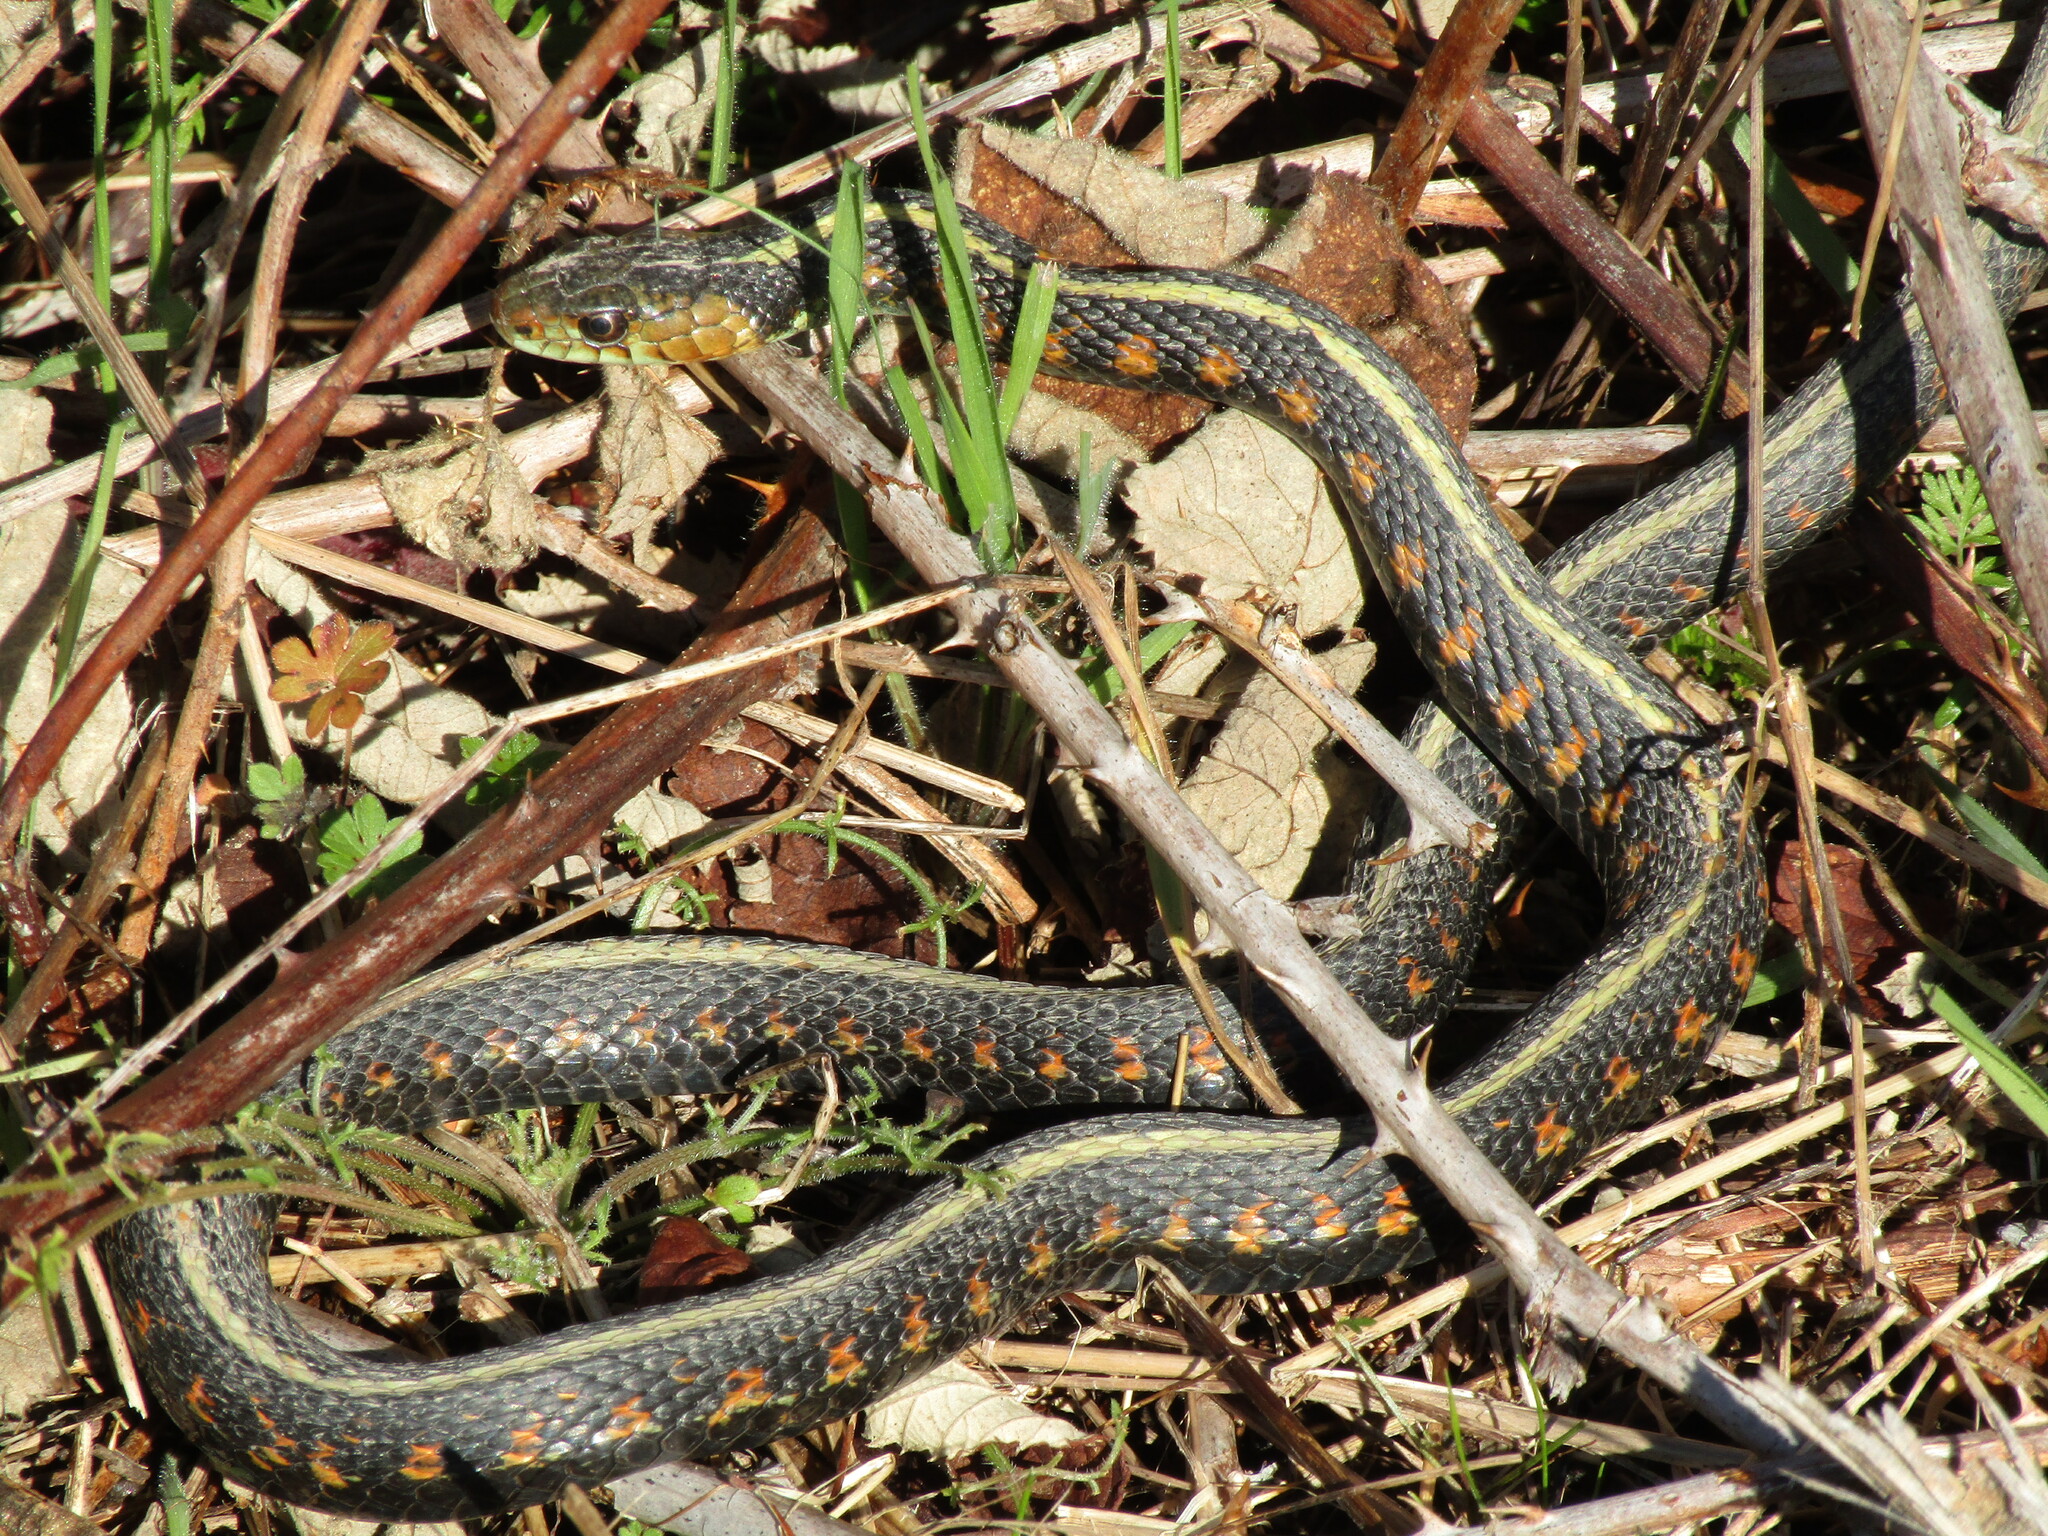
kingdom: Animalia
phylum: Chordata
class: Squamata
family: Colubridae
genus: Thamnophis
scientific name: Thamnophis sirtalis
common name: Common garter snake
